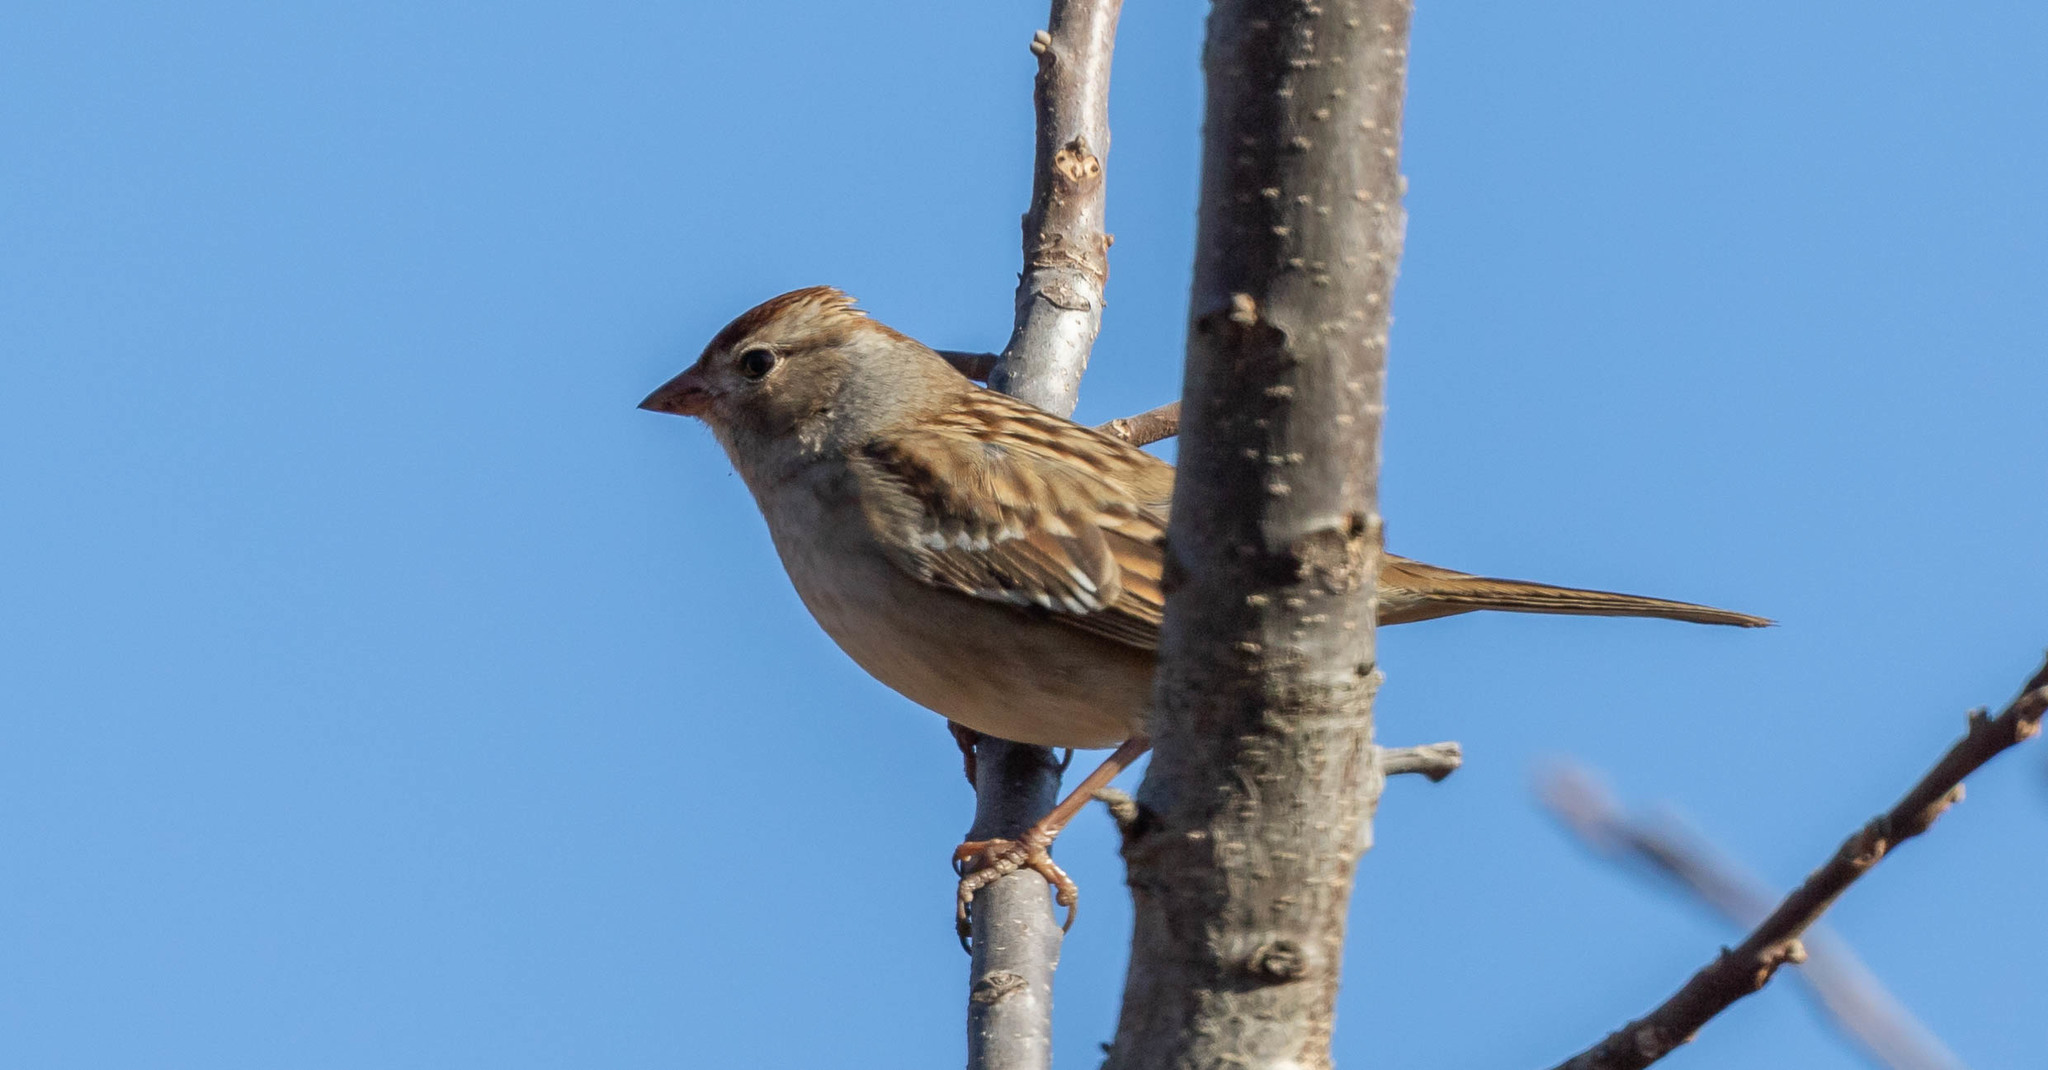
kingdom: Animalia
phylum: Chordata
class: Aves
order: Passeriformes
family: Passerellidae
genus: Zonotrichia
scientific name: Zonotrichia leucophrys
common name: White-crowned sparrow
